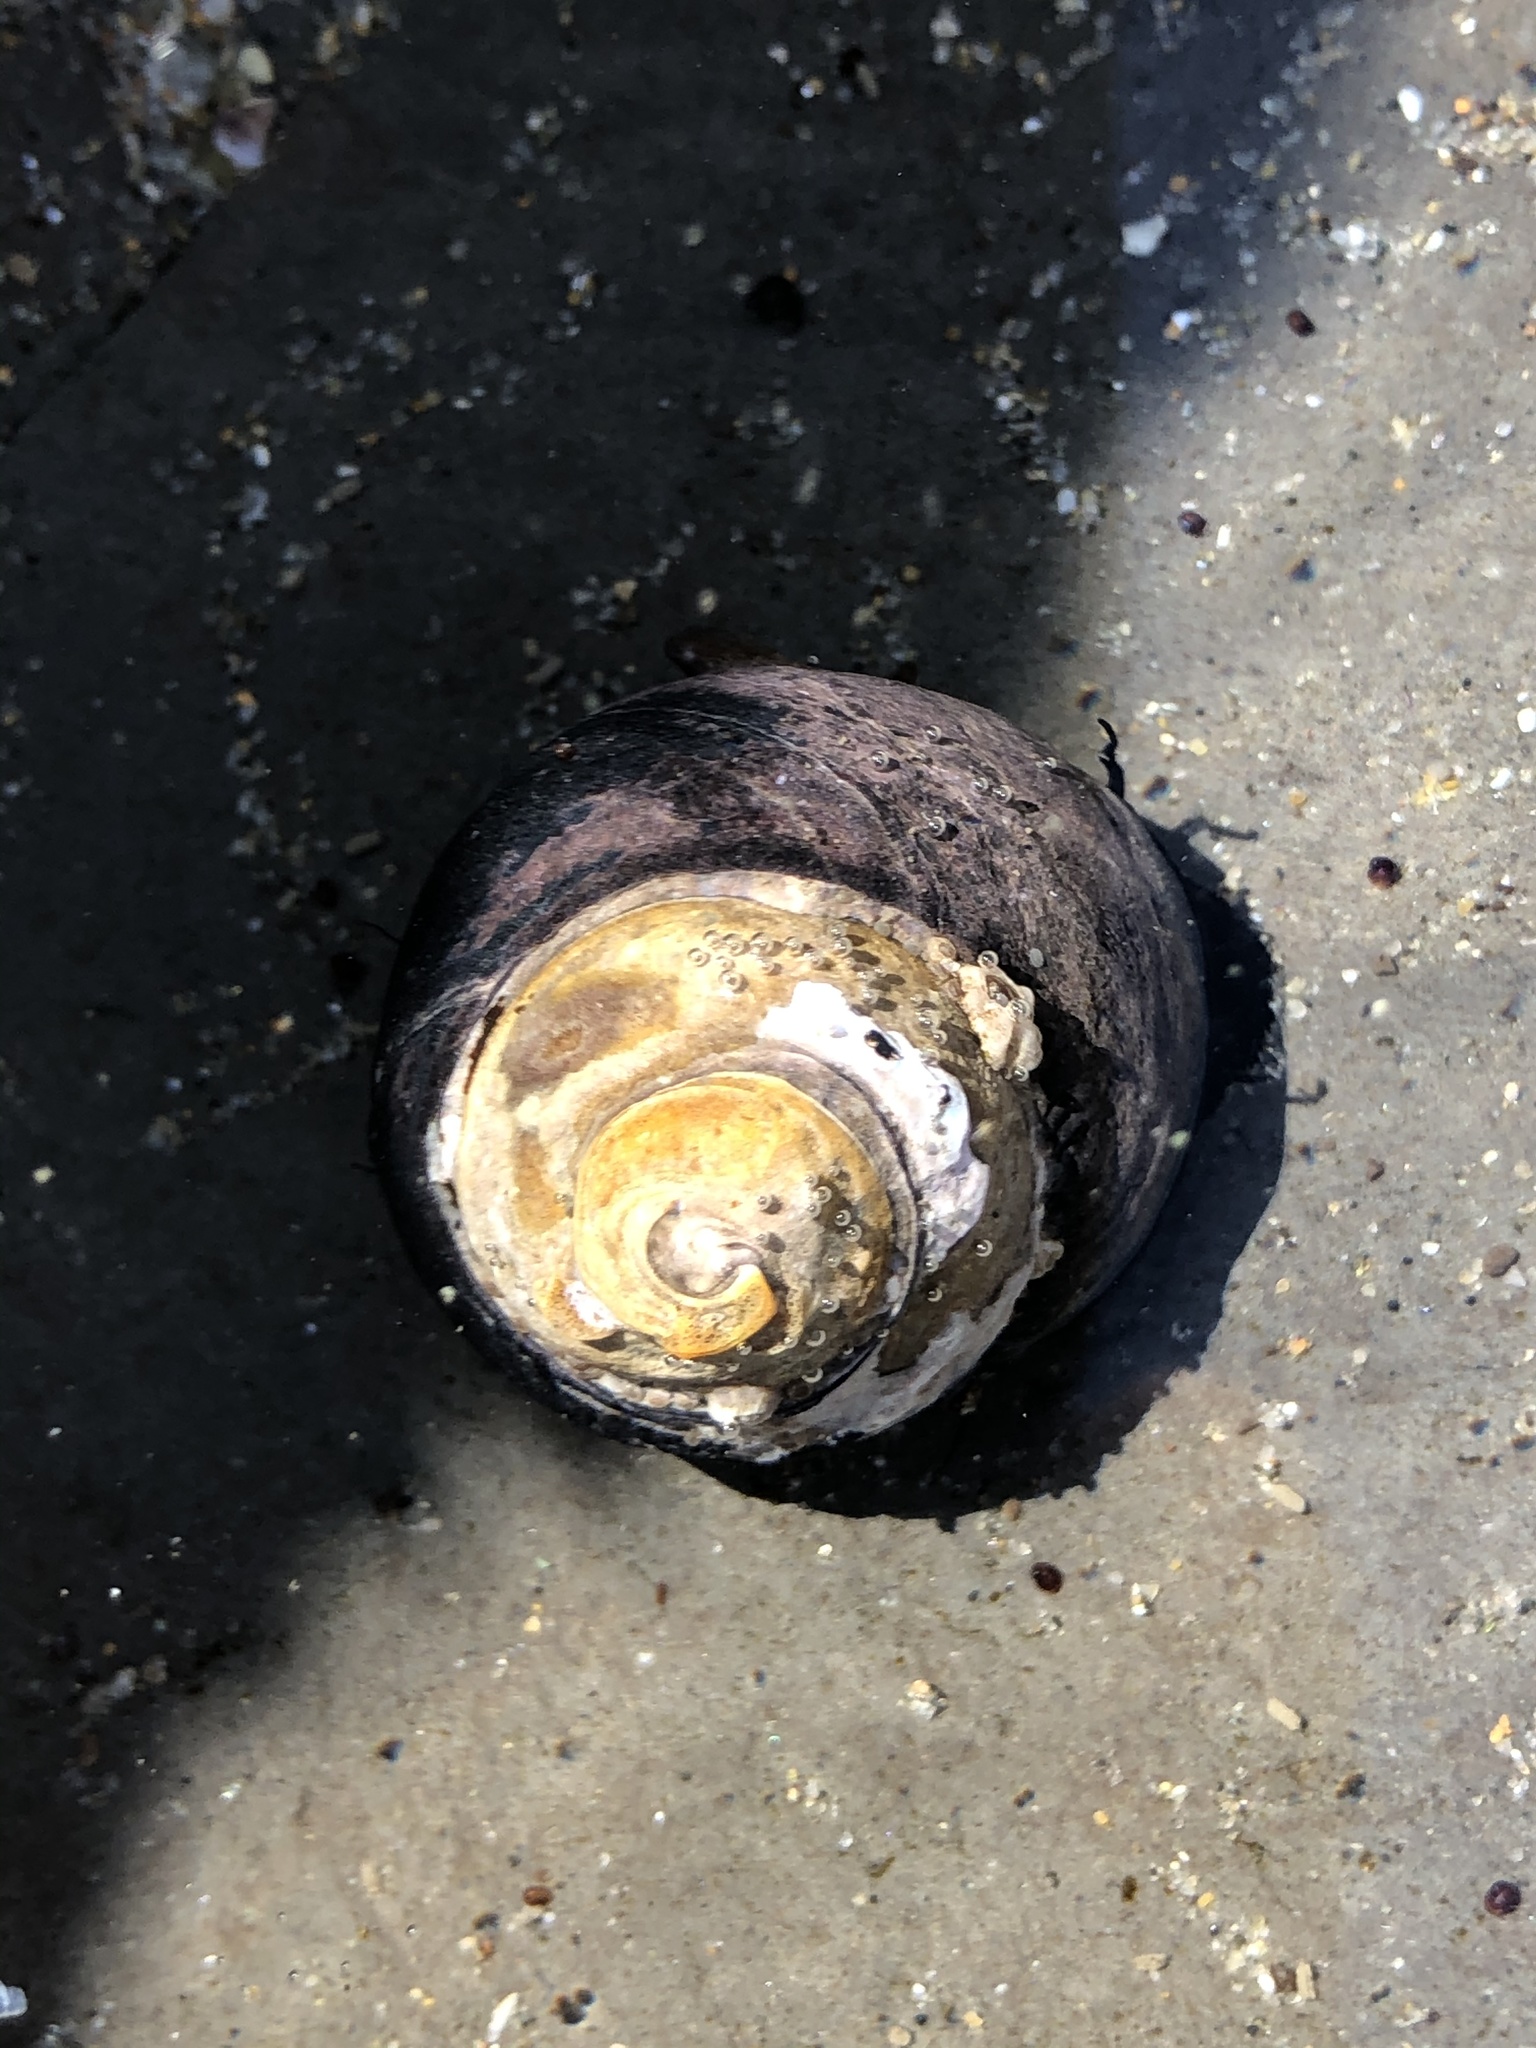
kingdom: Animalia
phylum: Mollusca
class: Gastropoda
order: Trochida
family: Tegulidae
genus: Tegula
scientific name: Tegula funebralis
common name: Black tegula
